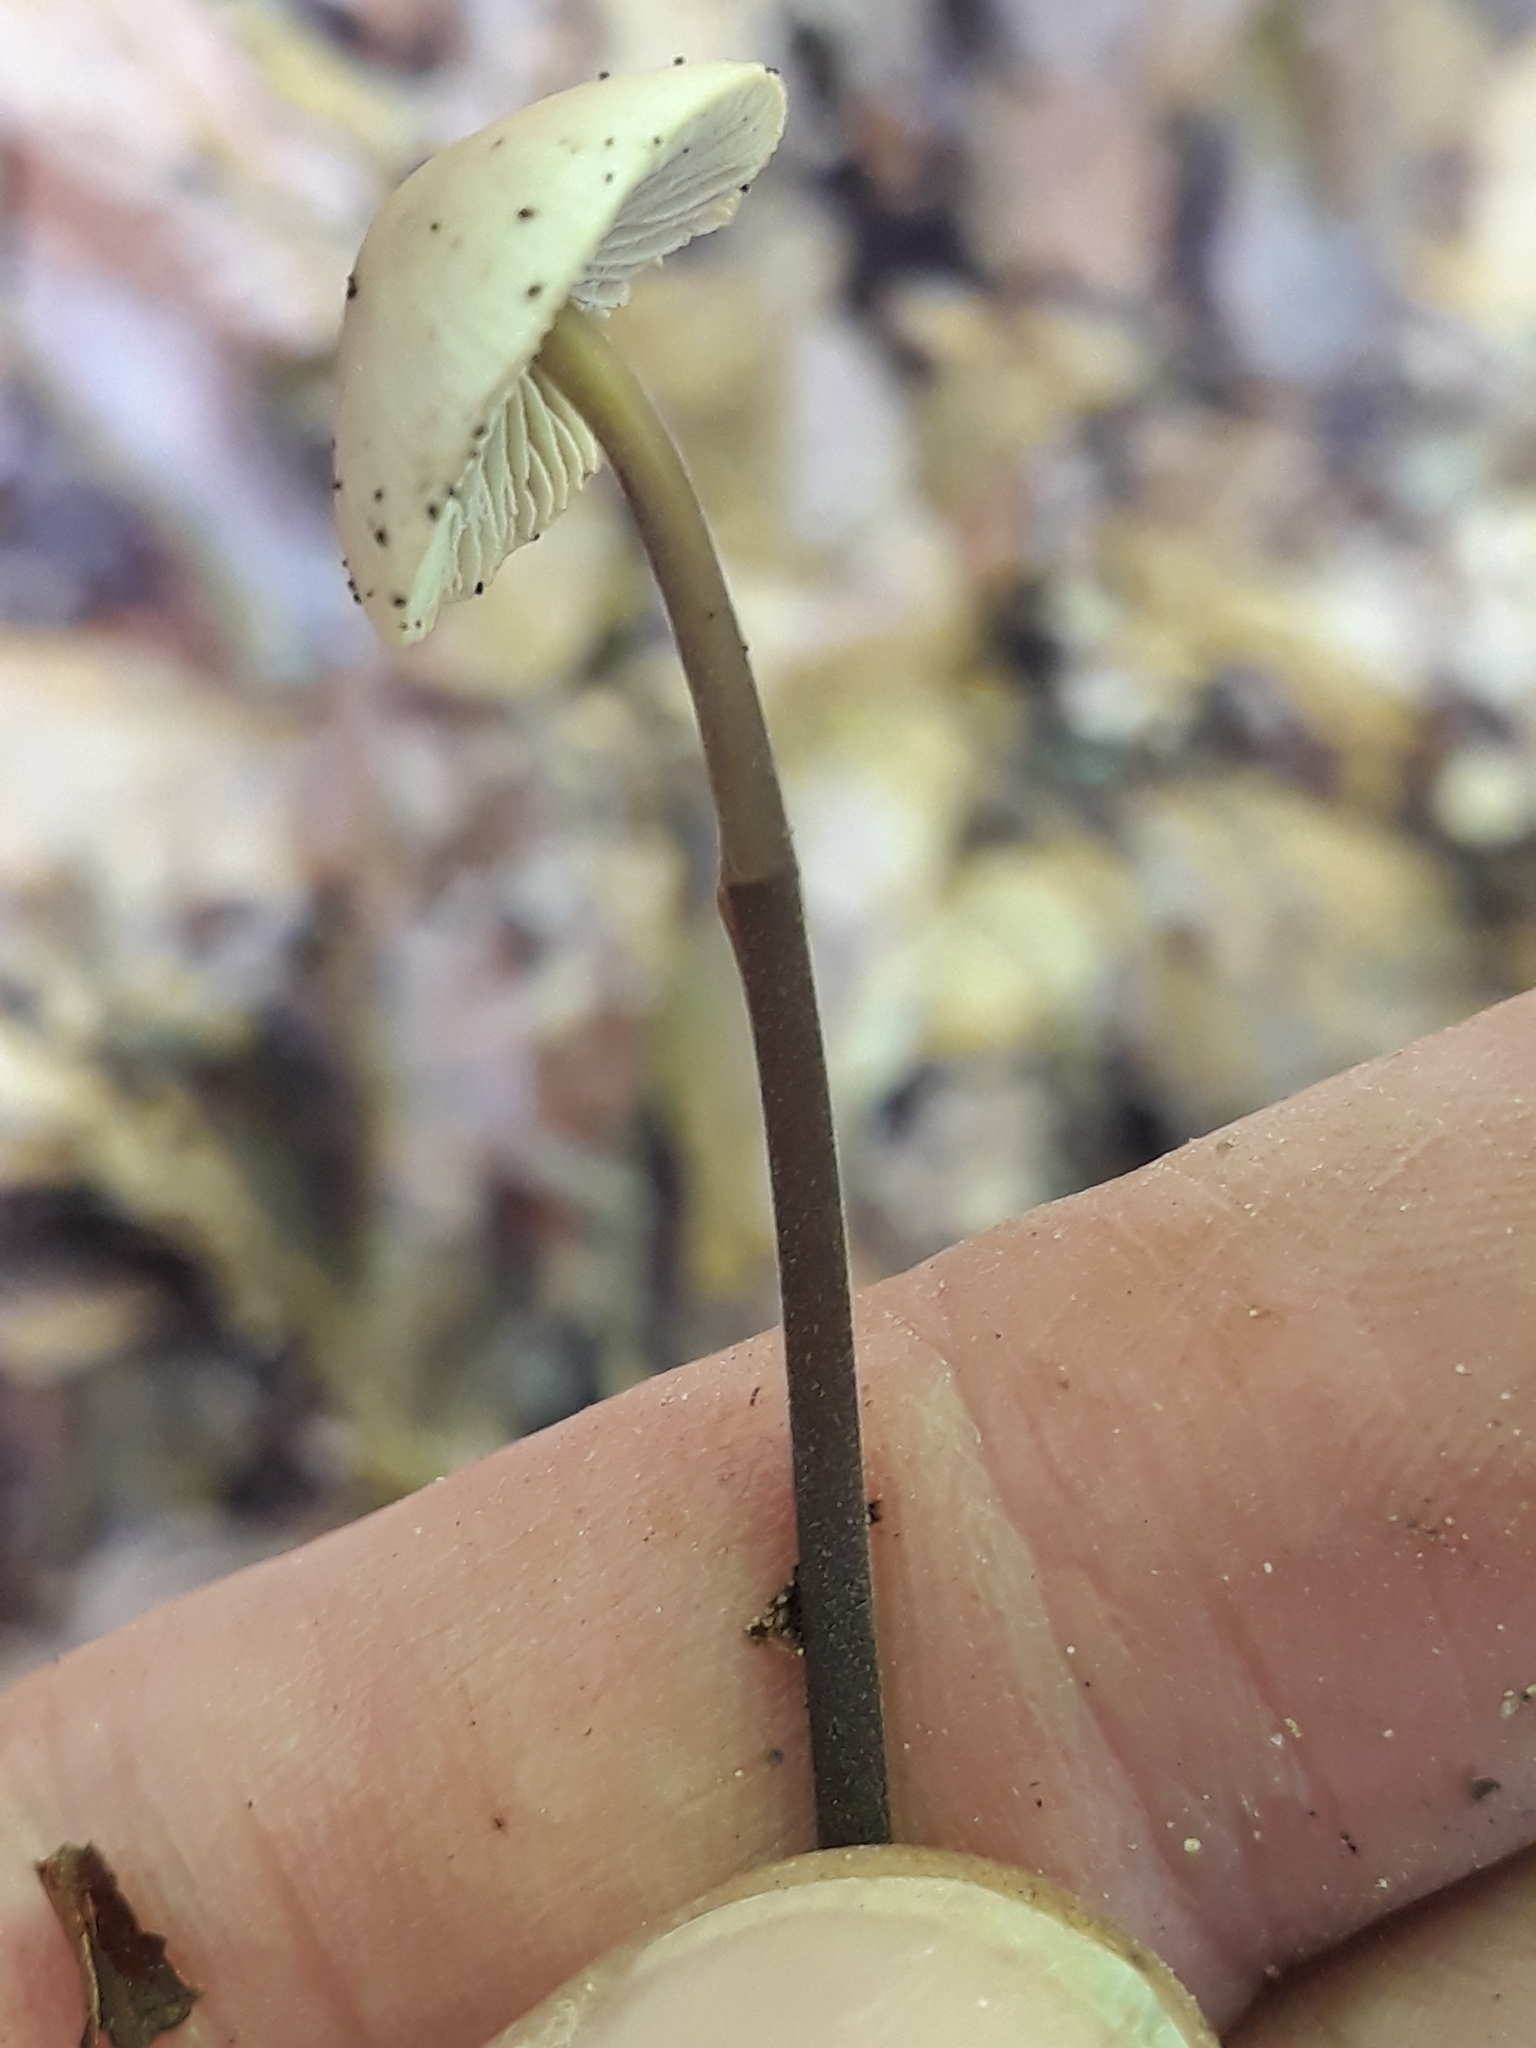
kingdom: Fungi
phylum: Basidiomycota
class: Agaricomycetes
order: Agaricales
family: Omphalotaceae
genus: Mycetinis
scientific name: Mycetinis alliaceus
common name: Garlic parachute
